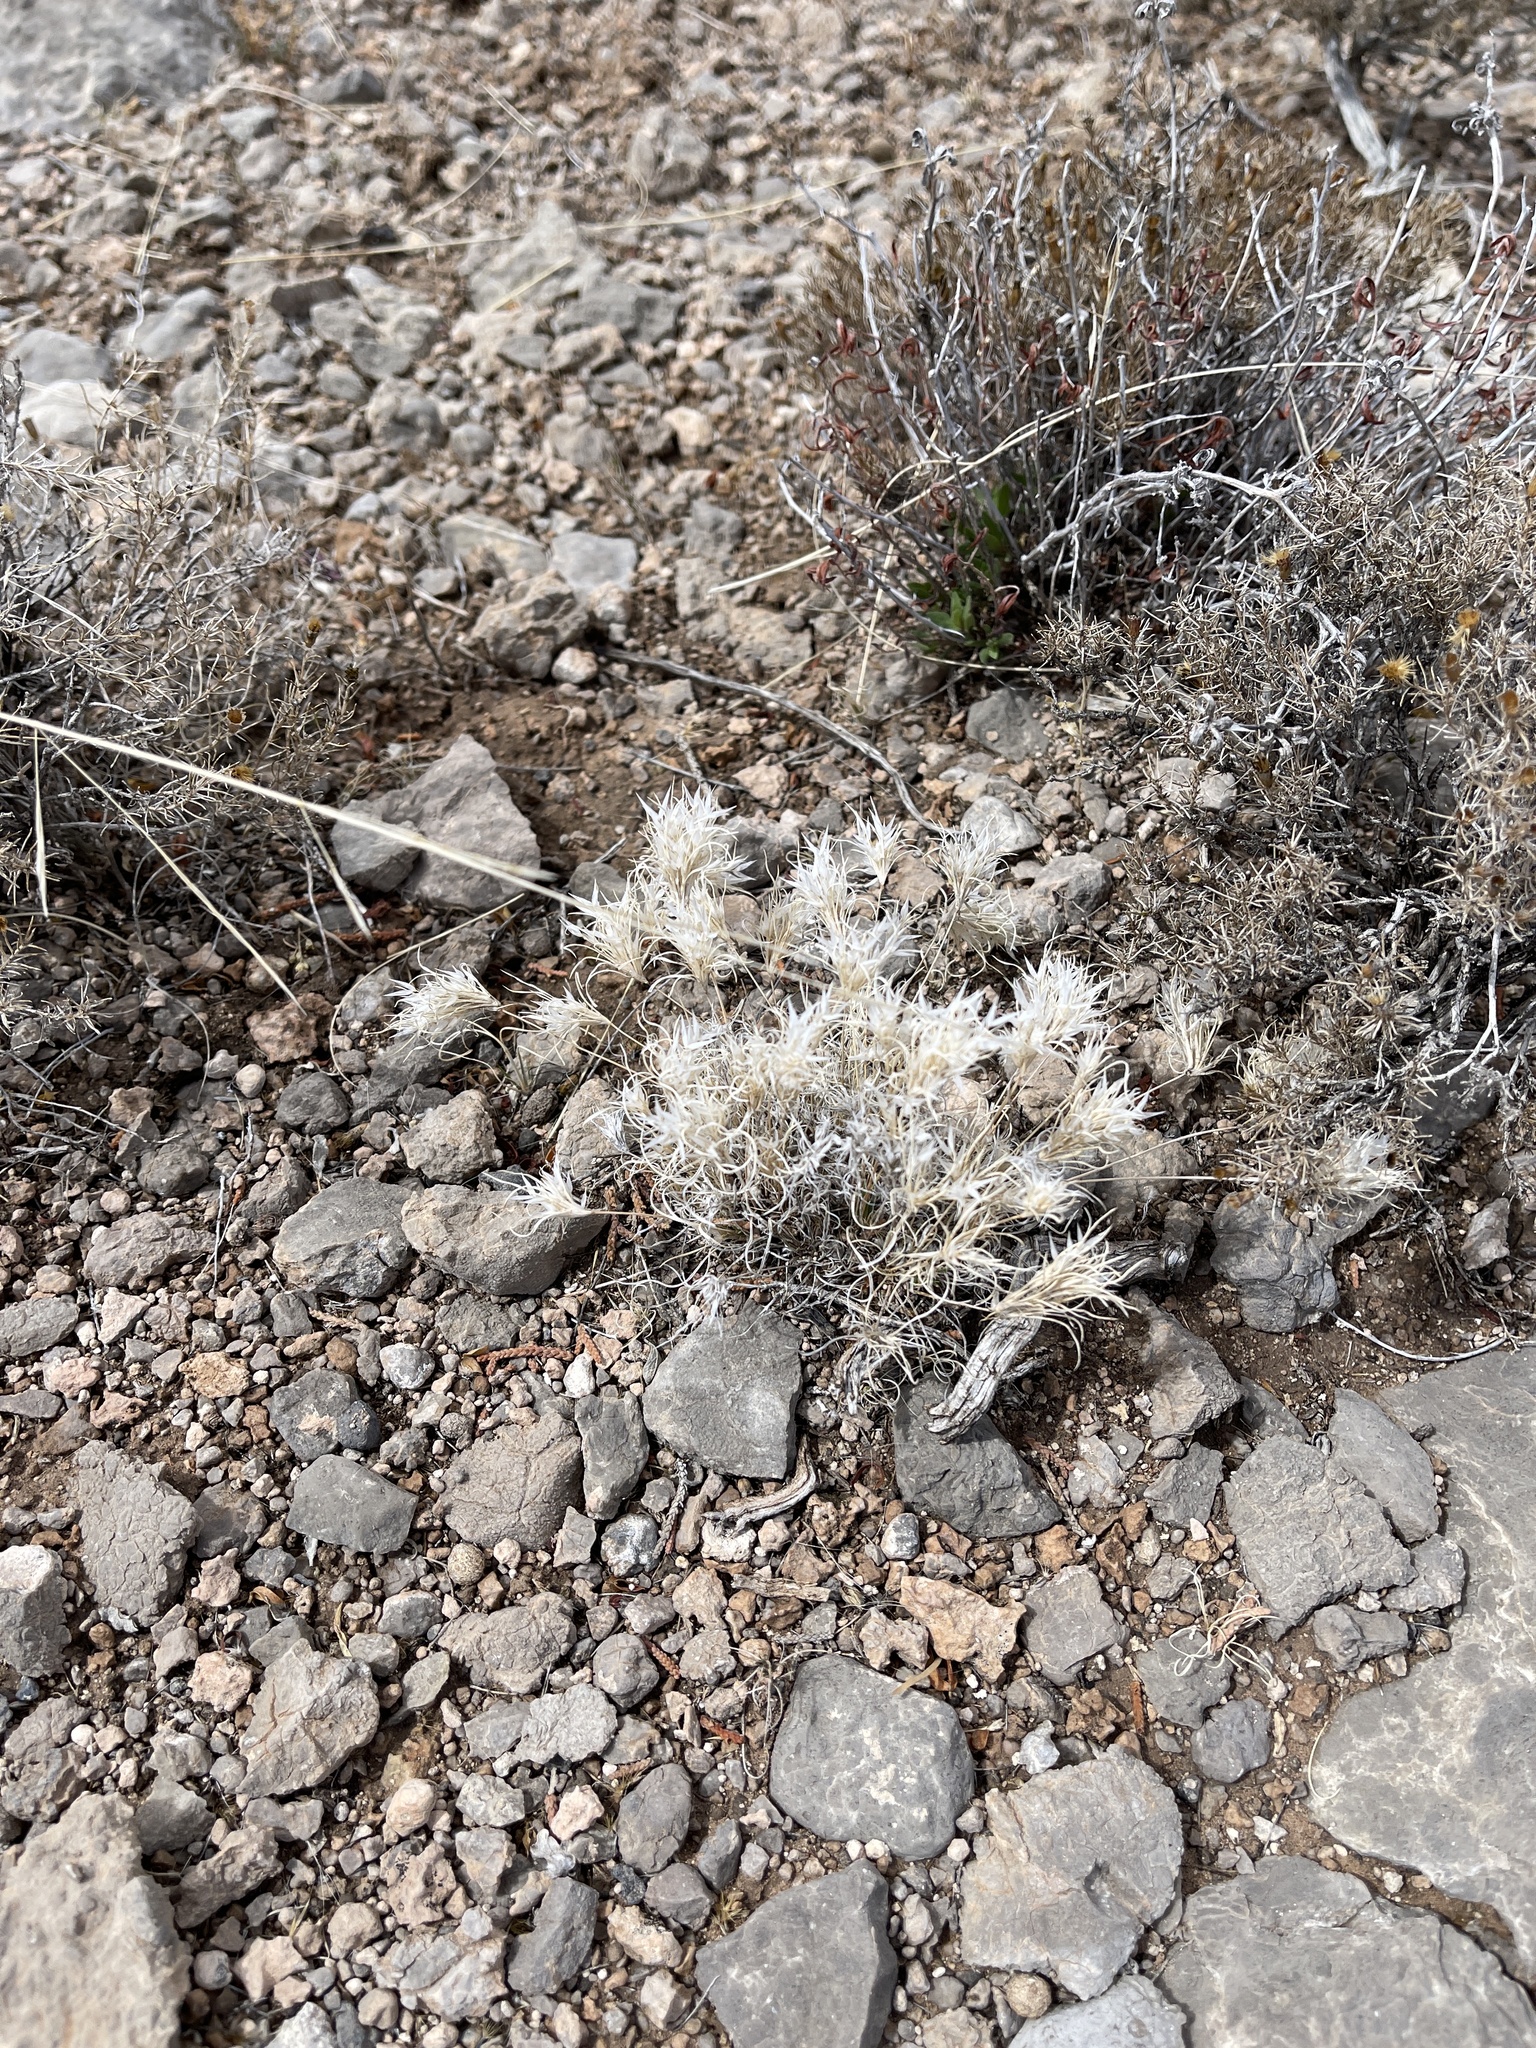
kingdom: Plantae
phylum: Tracheophyta
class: Liliopsida
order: Poales
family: Poaceae
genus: Dasyochloa
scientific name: Dasyochloa pulchella
